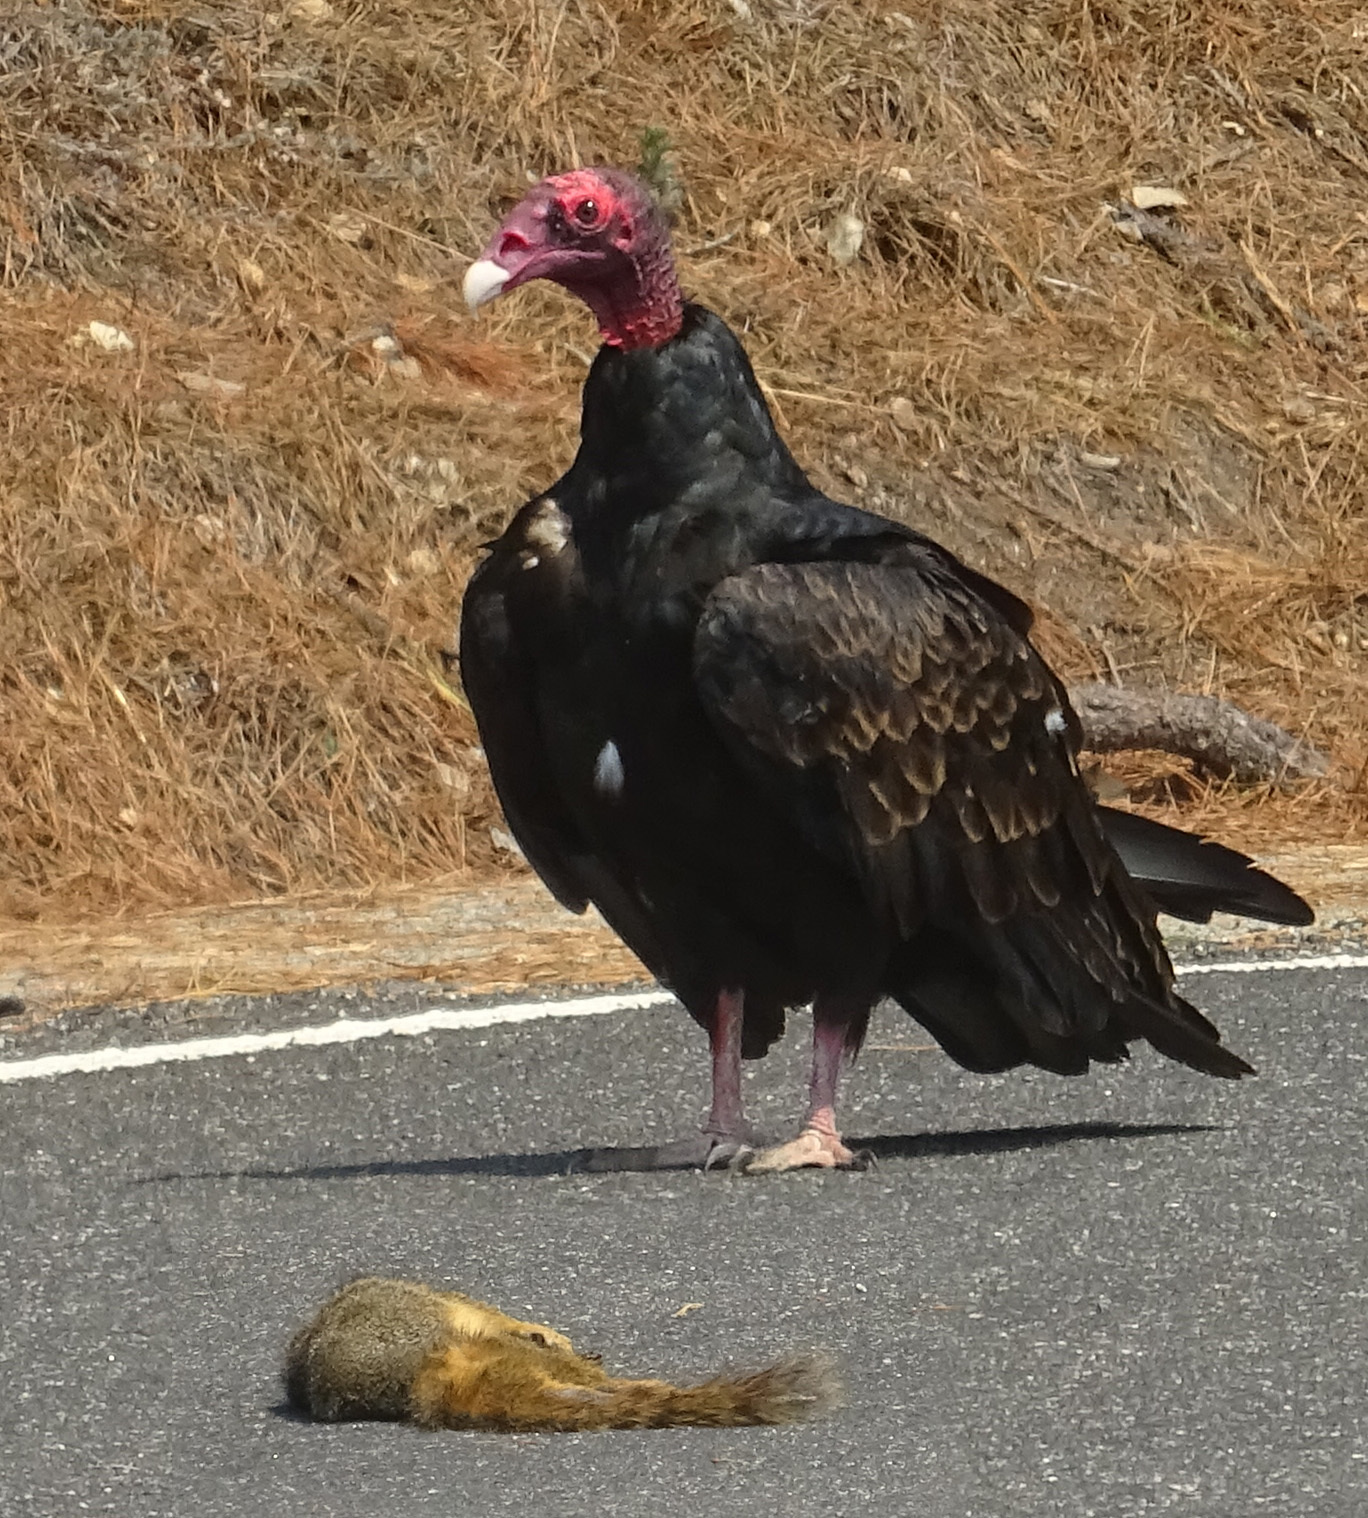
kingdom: Animalia
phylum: Chordata
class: Aves
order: Accipitriformes
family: Cathartidae
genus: Cathartes
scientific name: Cathartes aura
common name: Turkey vulture
